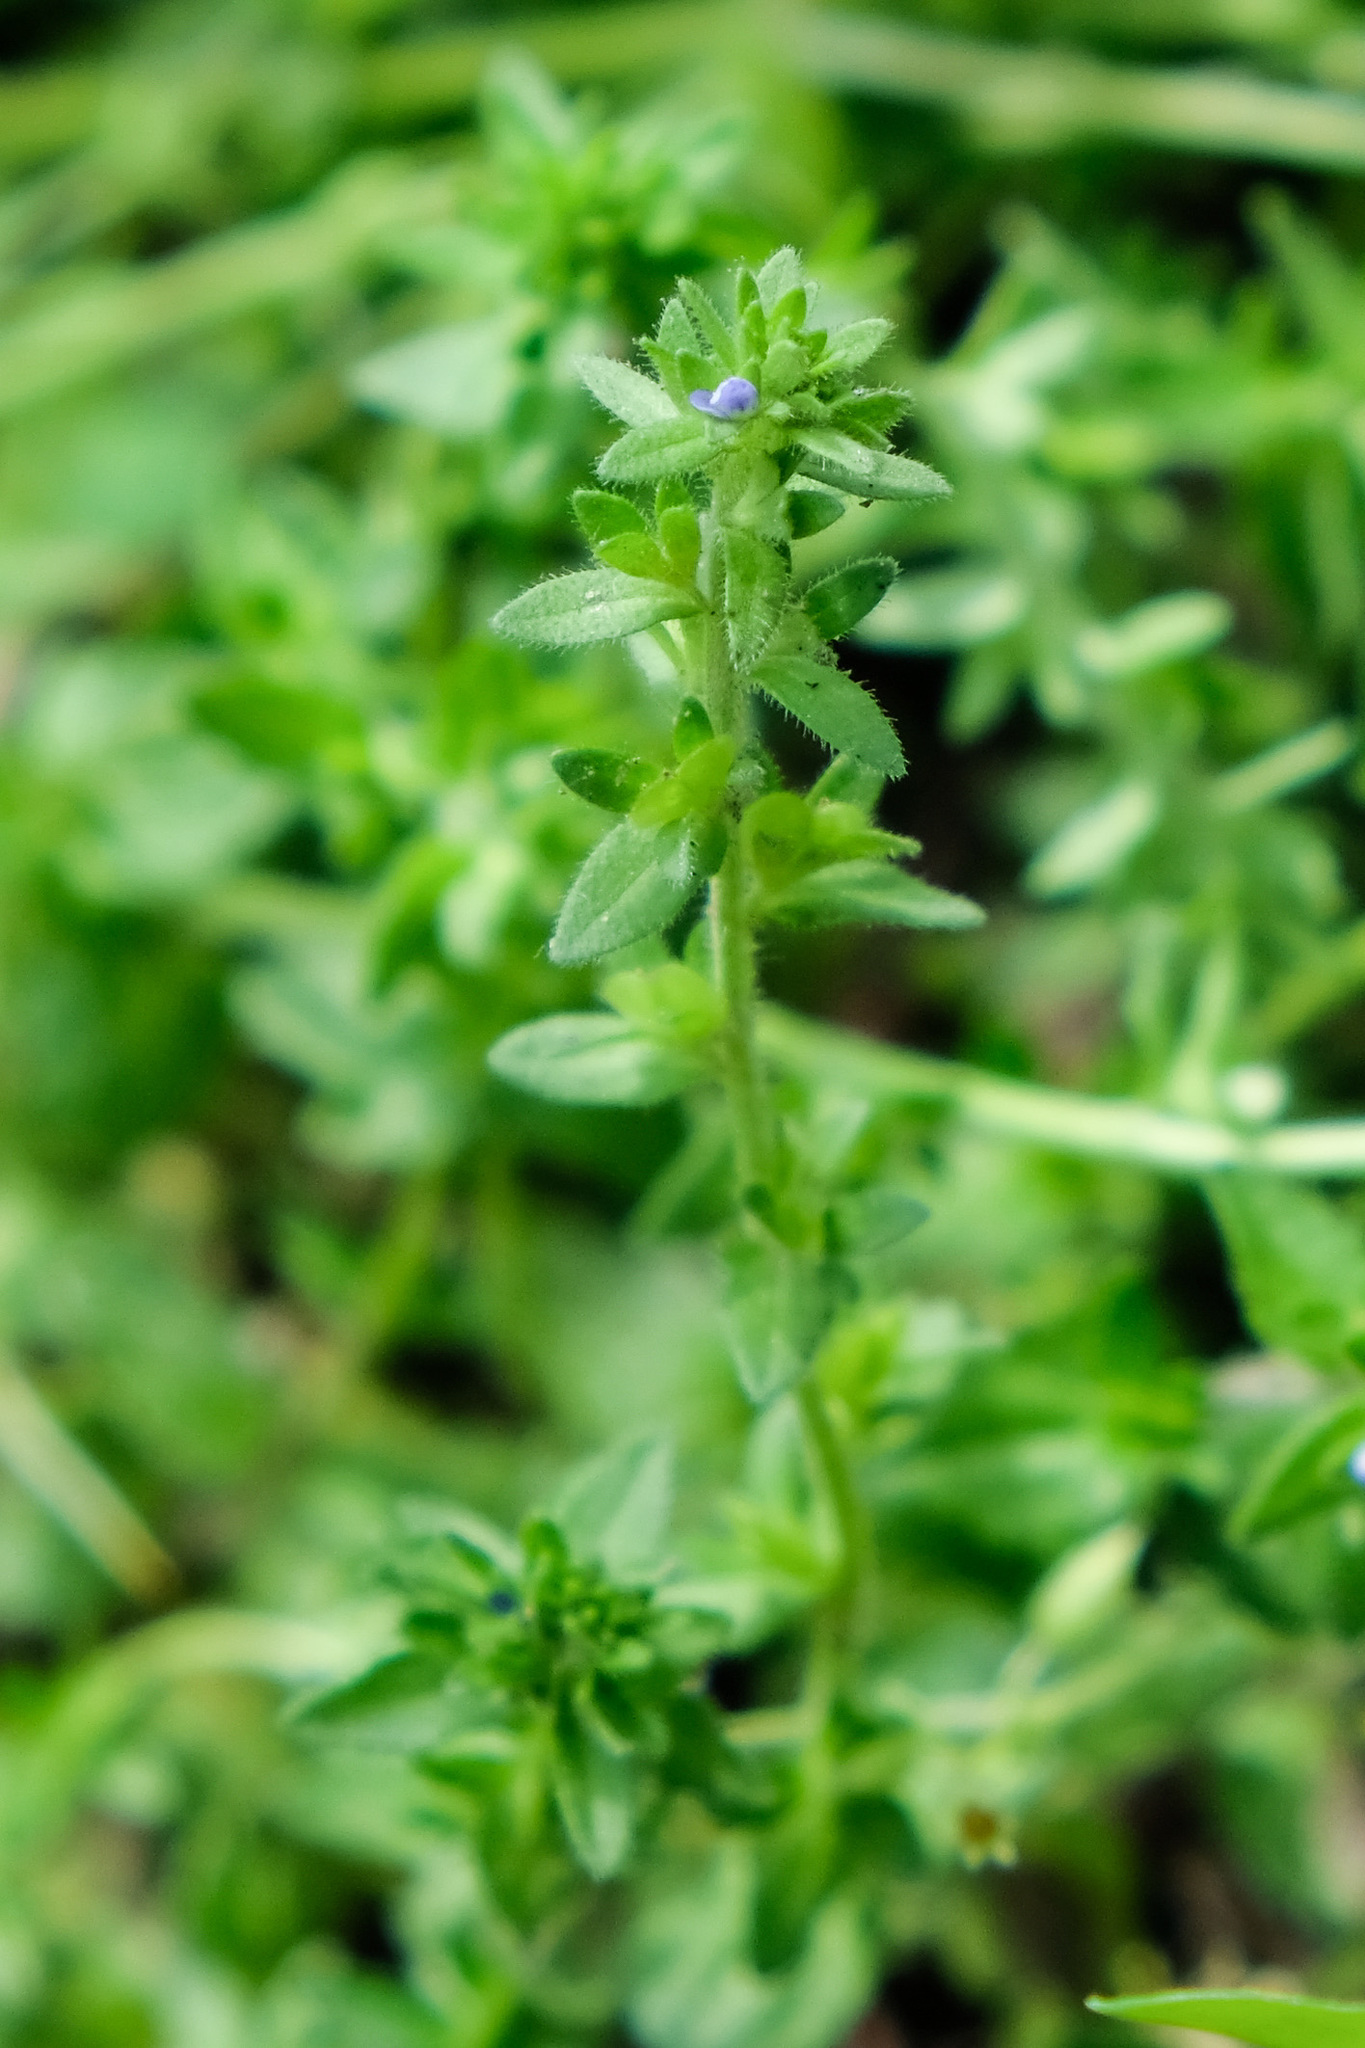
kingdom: Plantae
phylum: Tracheophyta
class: Magnoliopsida
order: Lamiales
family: Plantaginaceae
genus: Veronica
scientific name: Veronica arvensis
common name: Corn speedwell
